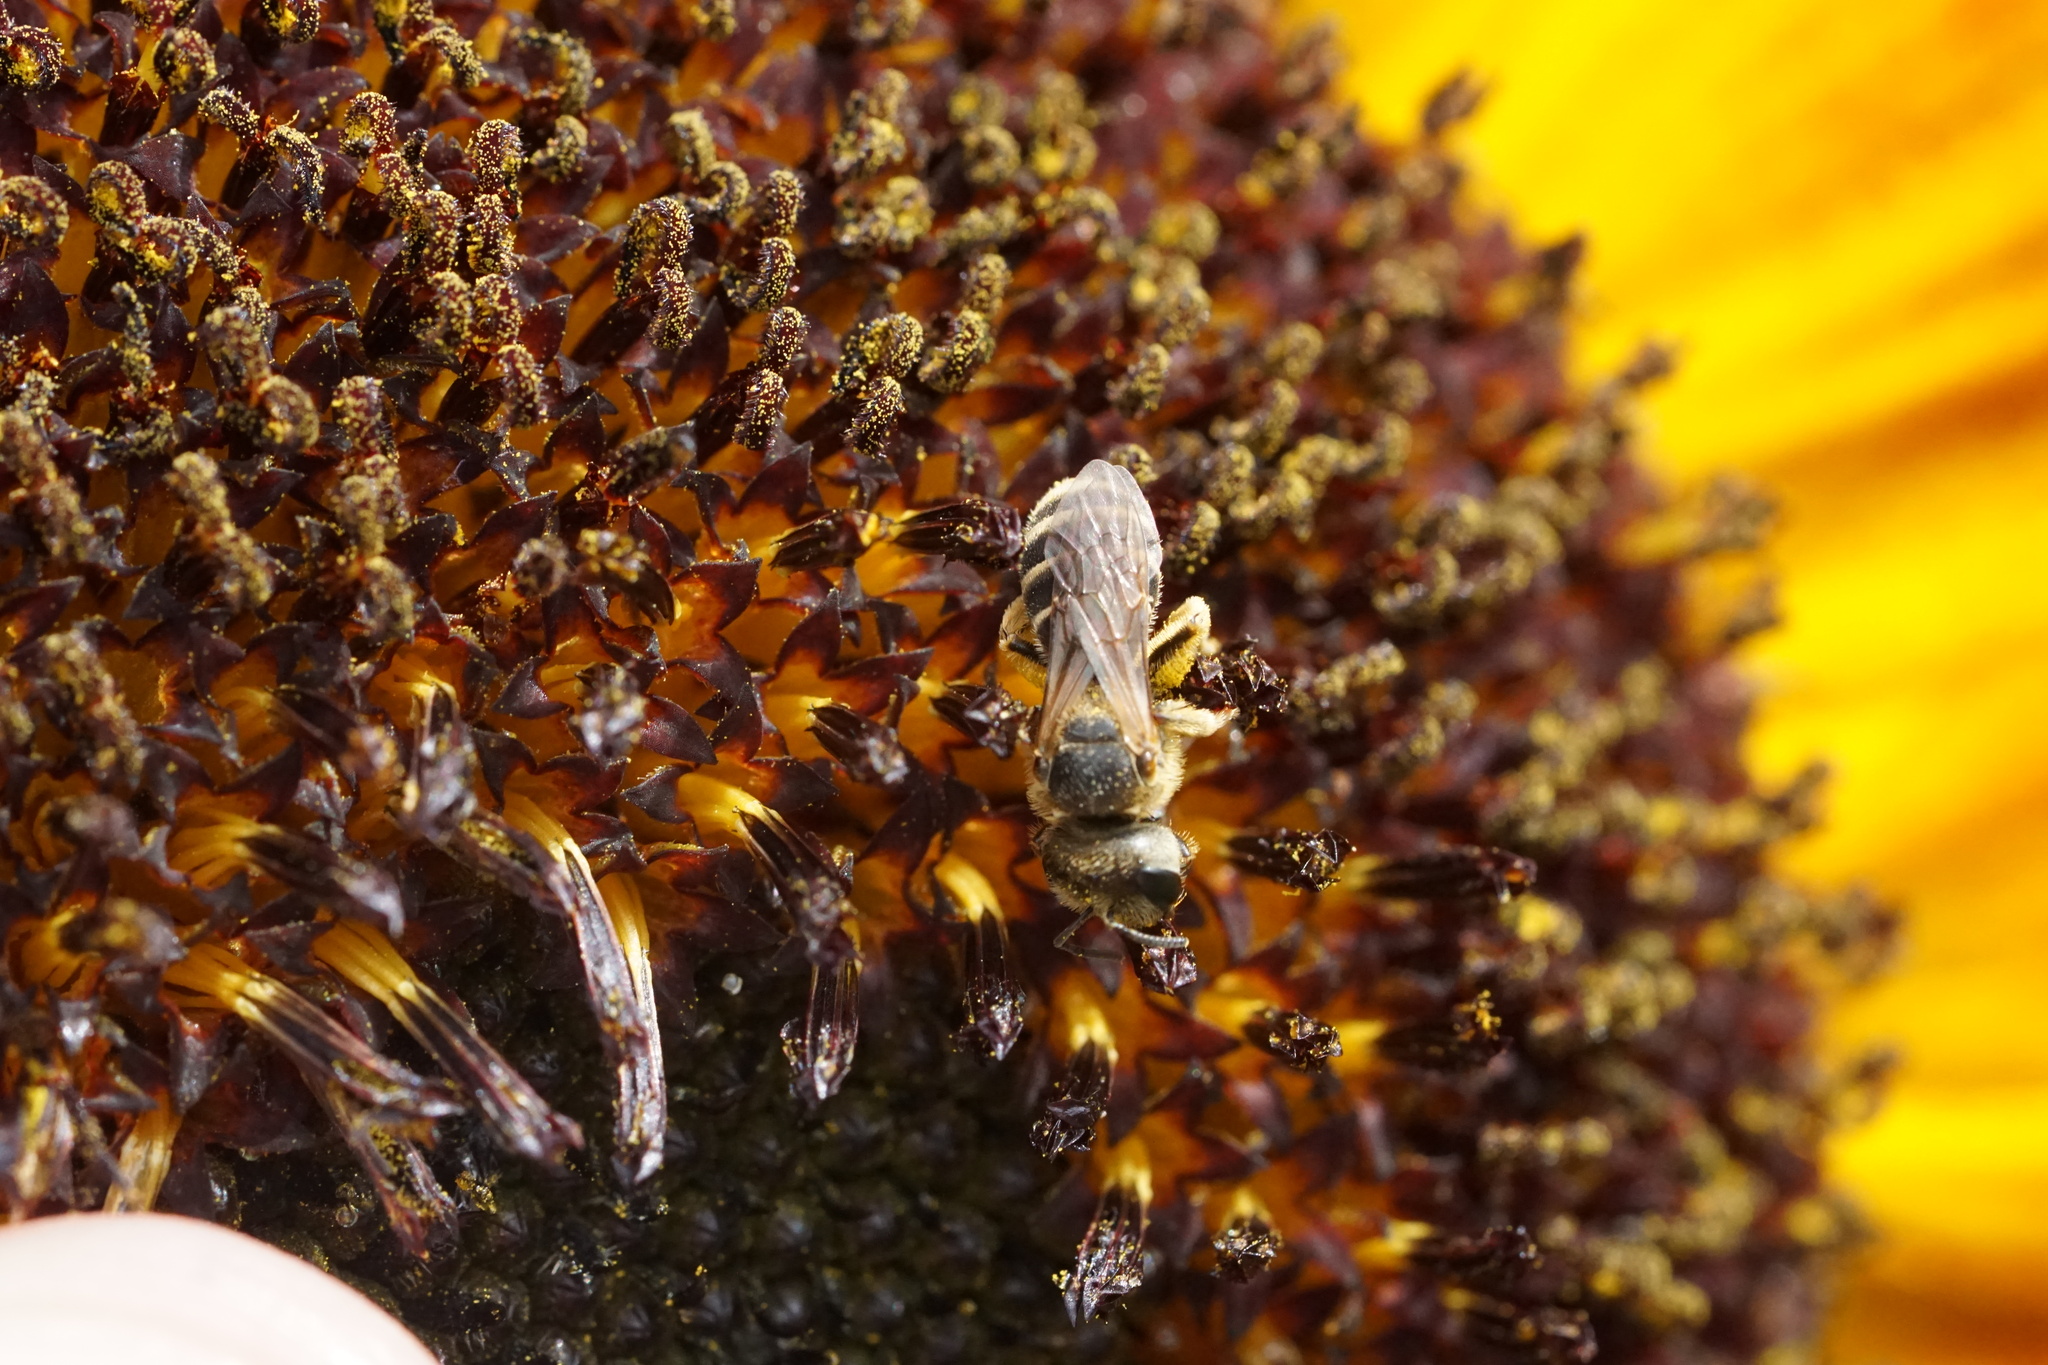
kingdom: Animalia
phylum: Arthropoda
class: Insecta
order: Hymenoptera
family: Halictidae
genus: Halictus
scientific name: Halictus ligatus
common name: Ligated furrow bee
